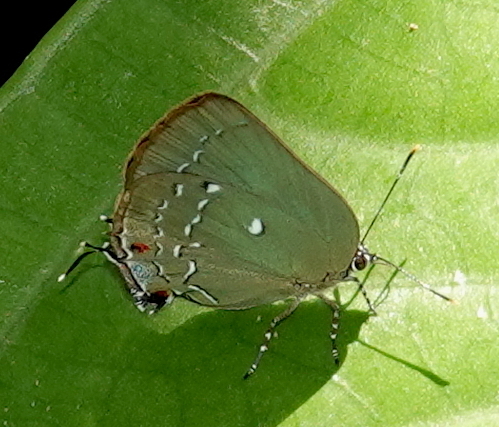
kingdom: Animalia
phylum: Arthropoda
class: Insecta
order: Lepidoptera
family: Lycaenidae
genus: Thecla
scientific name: Thecla myrtusa
